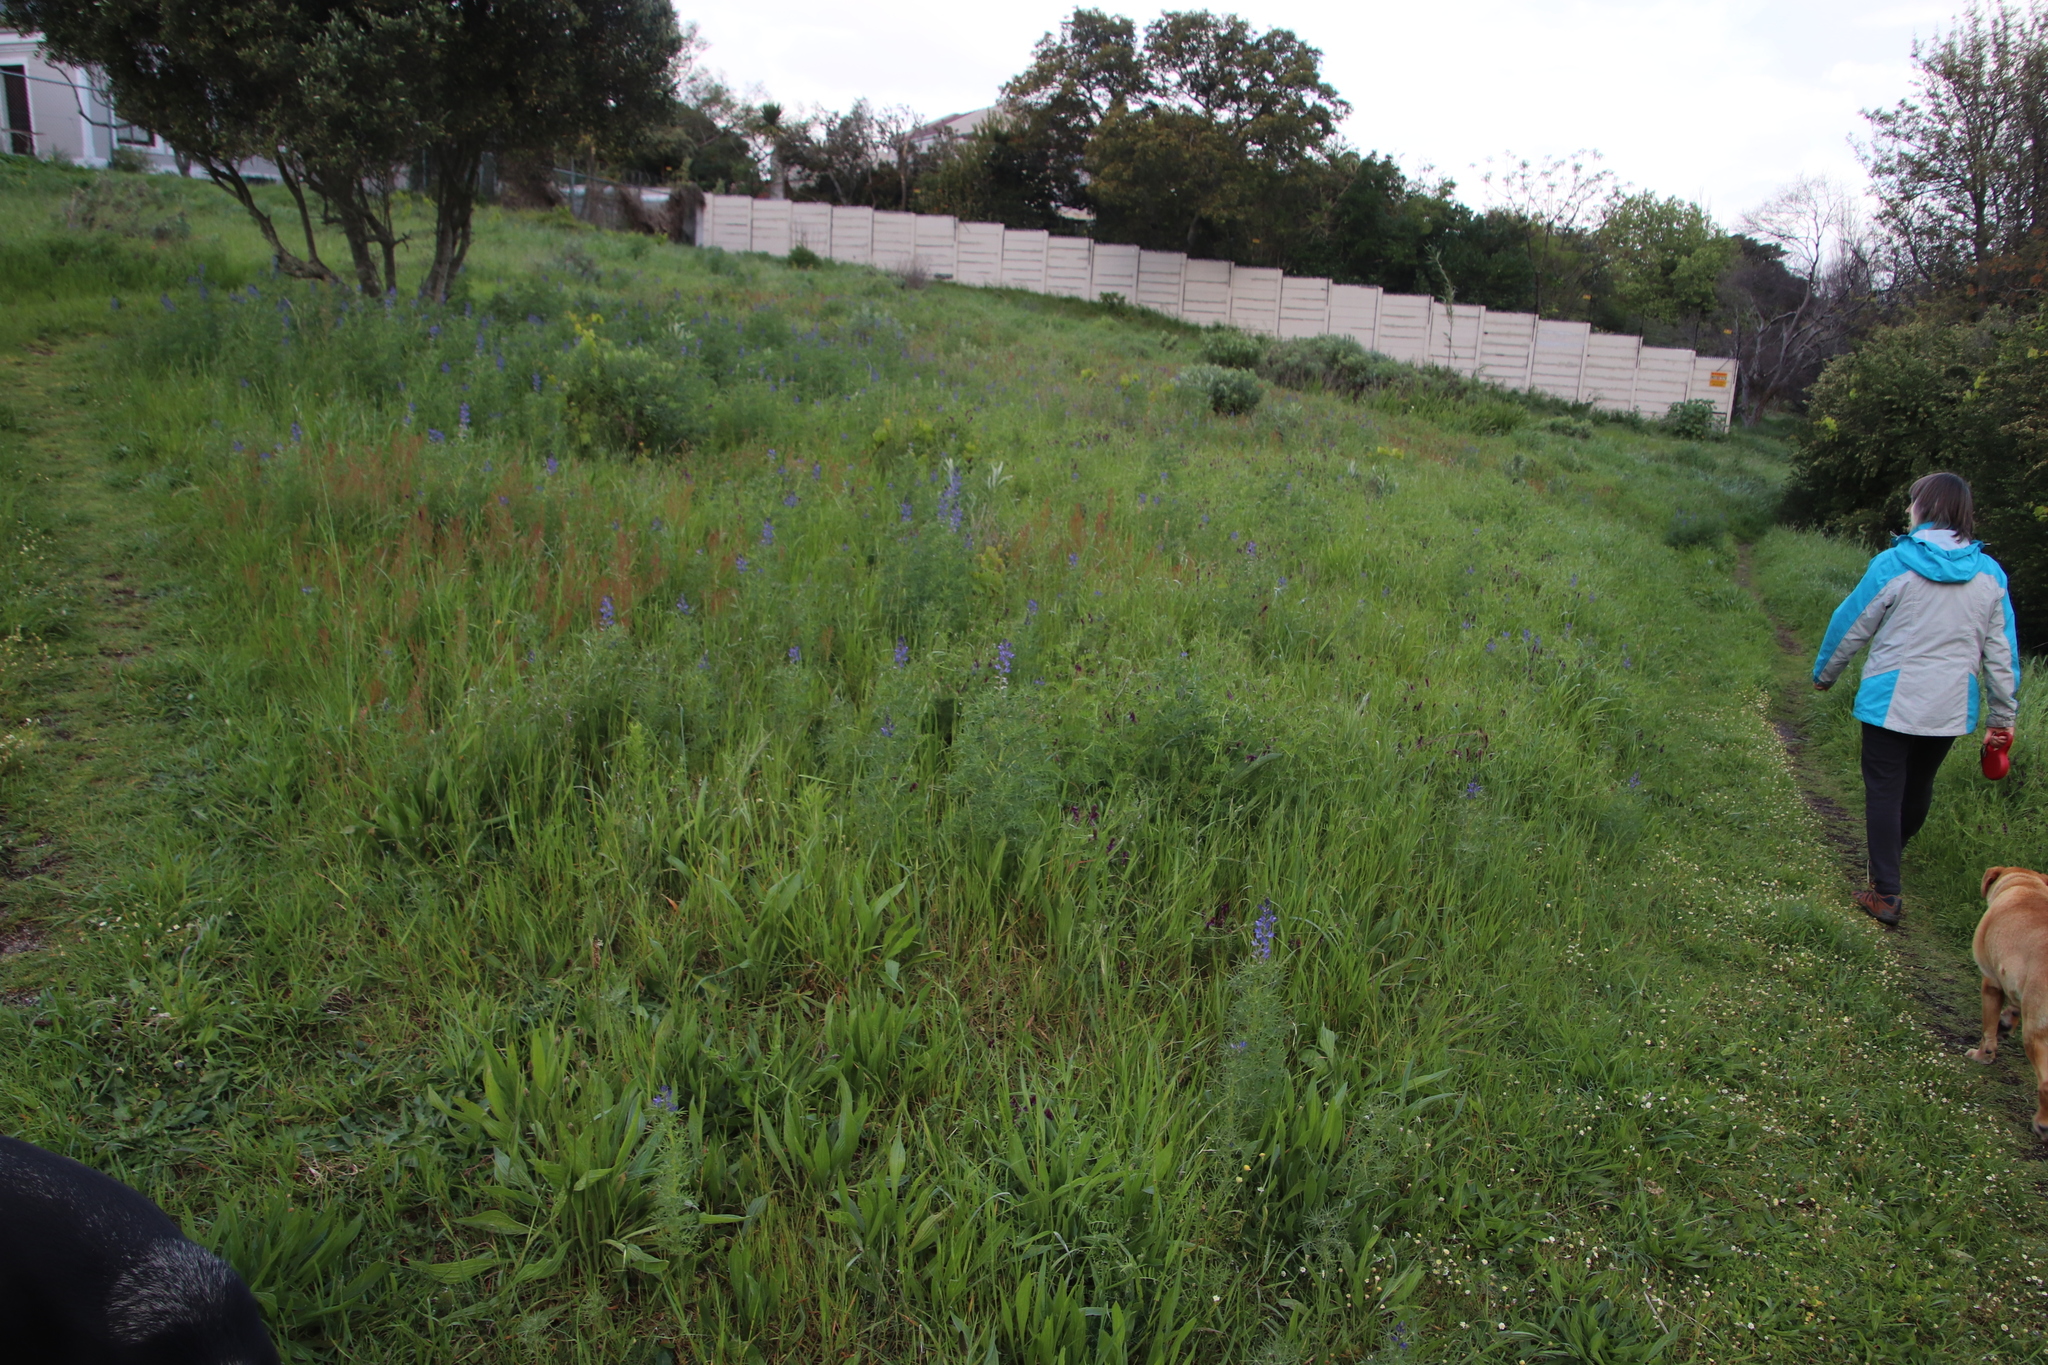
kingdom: Plantae
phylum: Tracheophyta
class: Magnoliopsida
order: Fabales
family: Fabaceae
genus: Lupinus
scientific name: Lupinus angustifolius
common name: Narrow-leaved lupin
